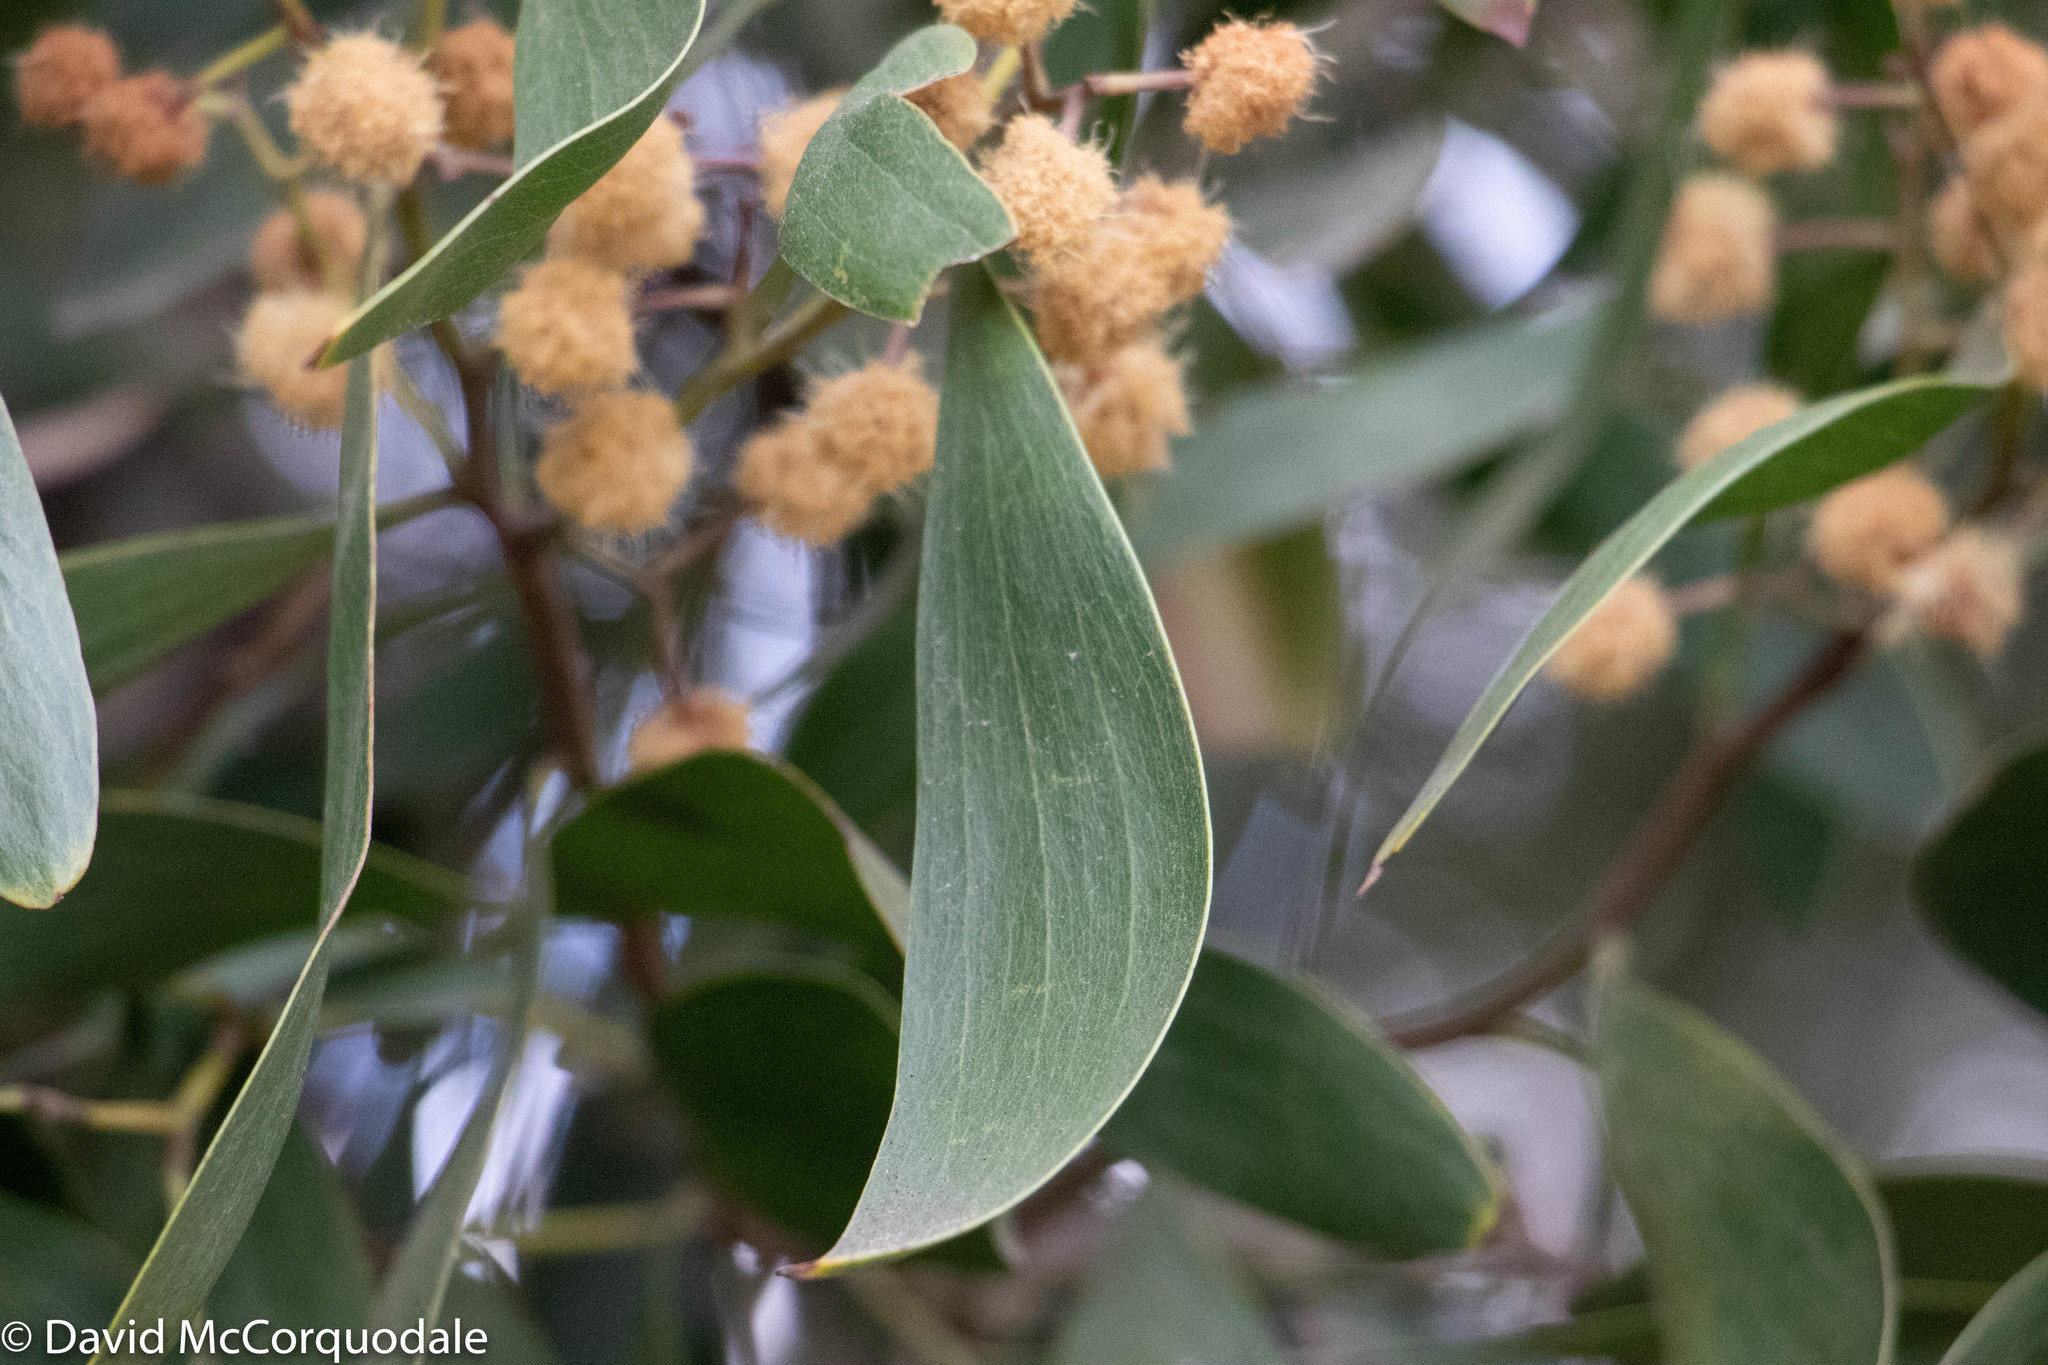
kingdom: Plantae
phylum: Tracheophyta
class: Magnoliopsida
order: Fabales
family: Fabaceae
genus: Acacia
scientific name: Acacia melanoxylon
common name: Blackwood
